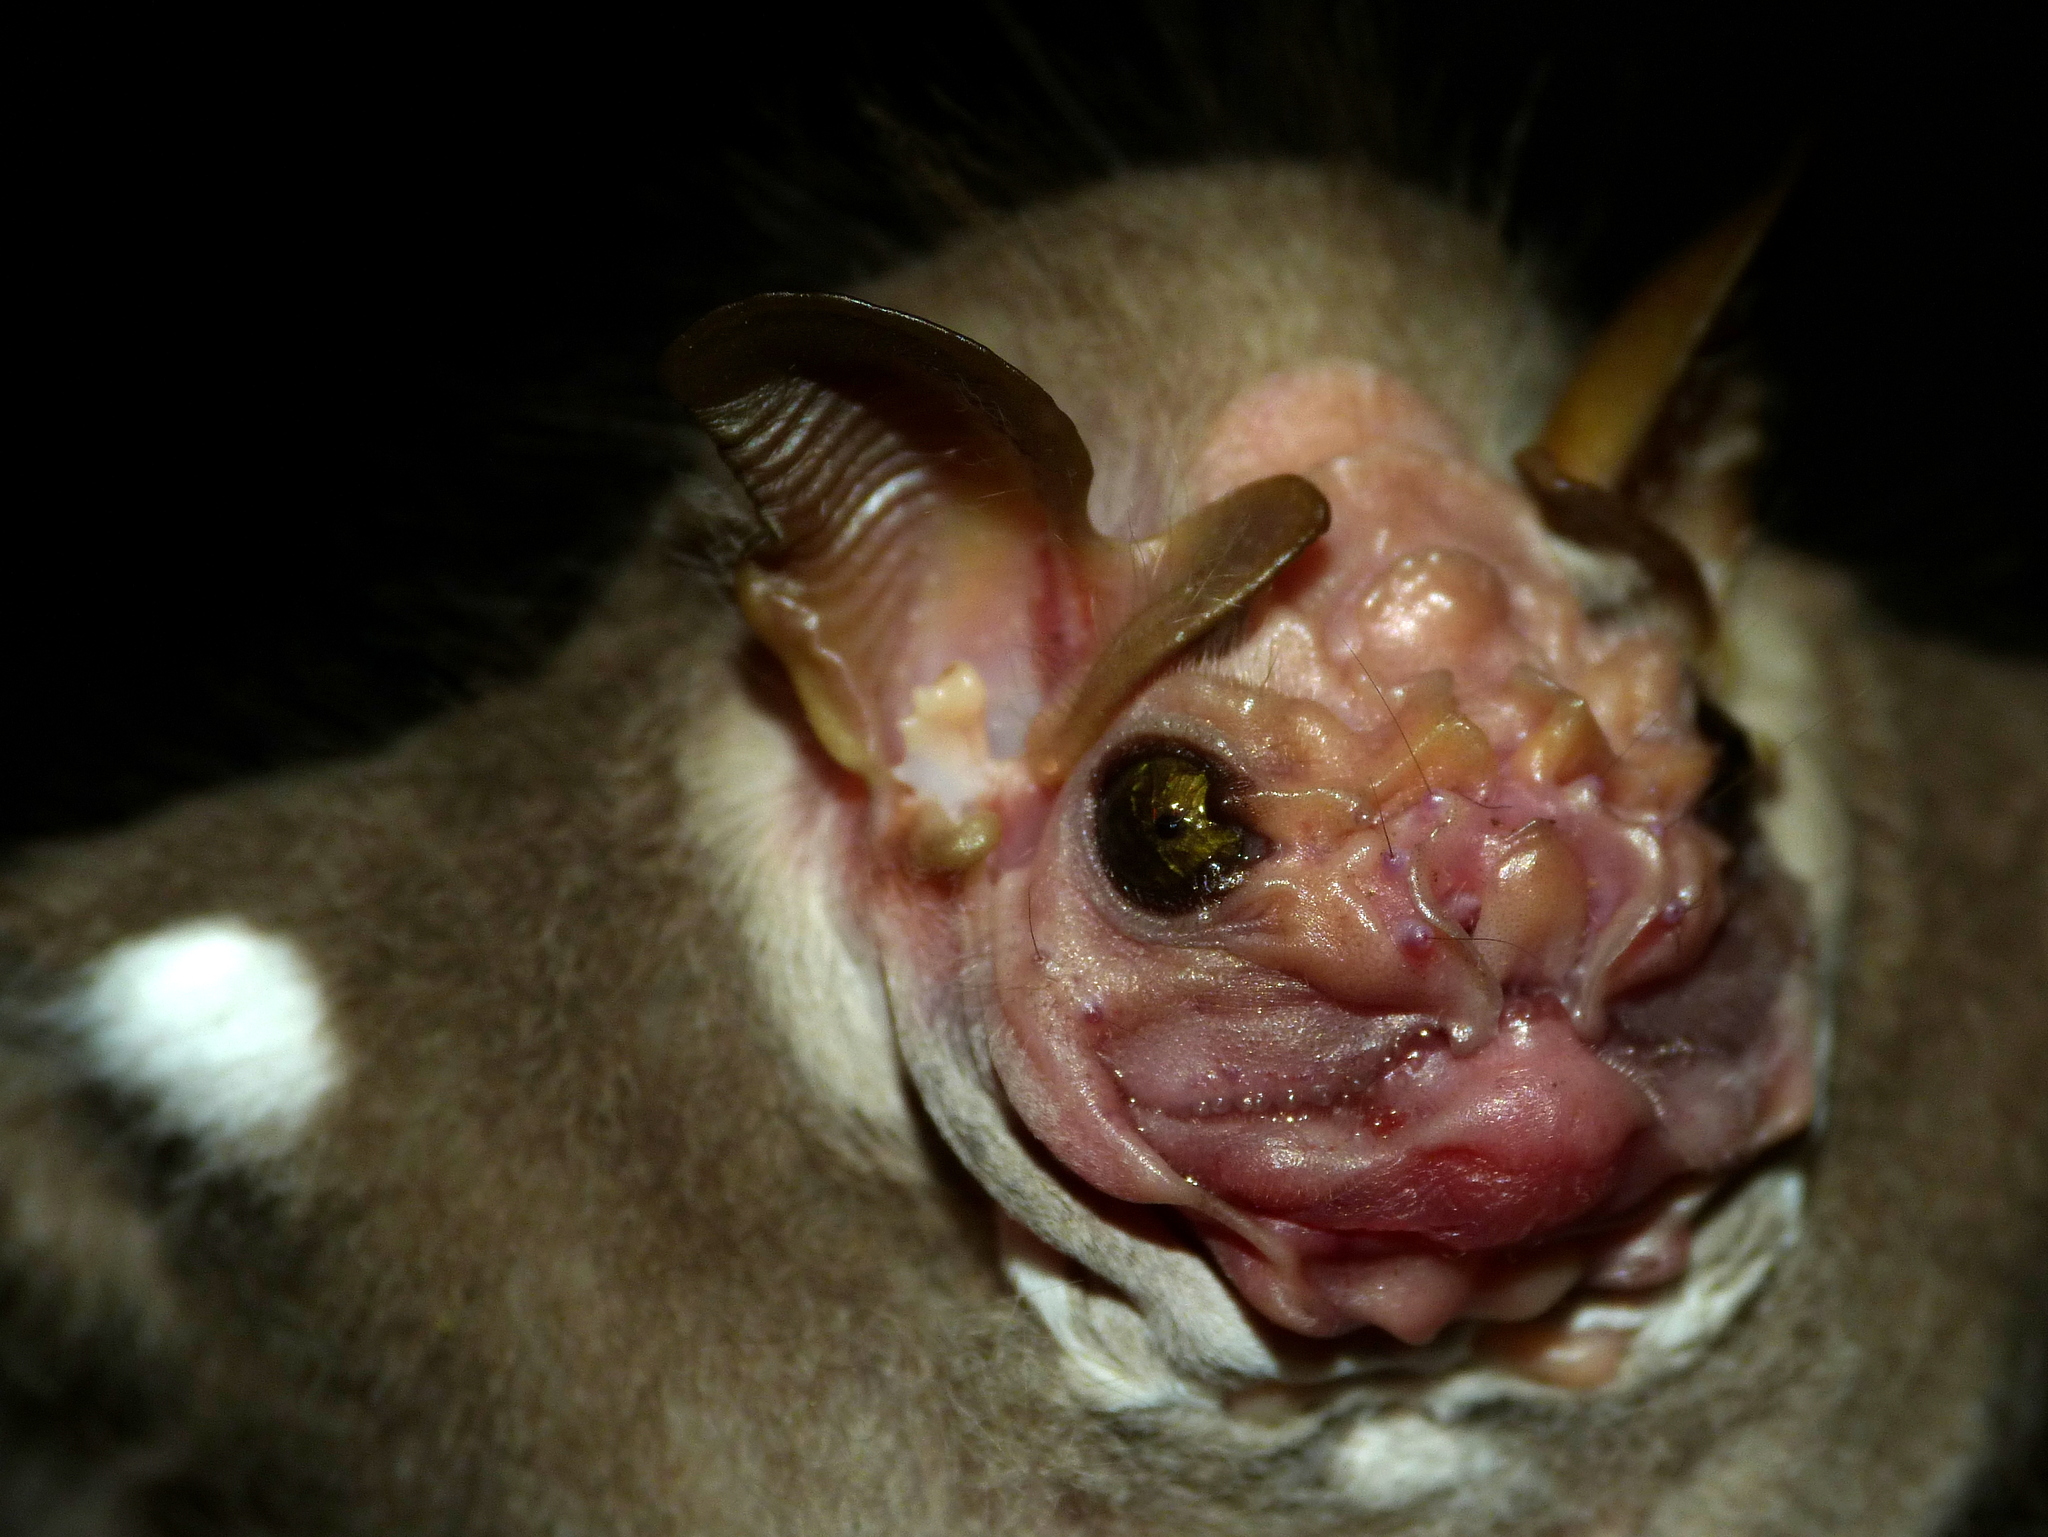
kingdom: Animalia
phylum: Chordata
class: Mammalia
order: Chiroptera
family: Phyllostomidae
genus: Centurio
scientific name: Centurio senex
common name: Wrinkle-faced bat
